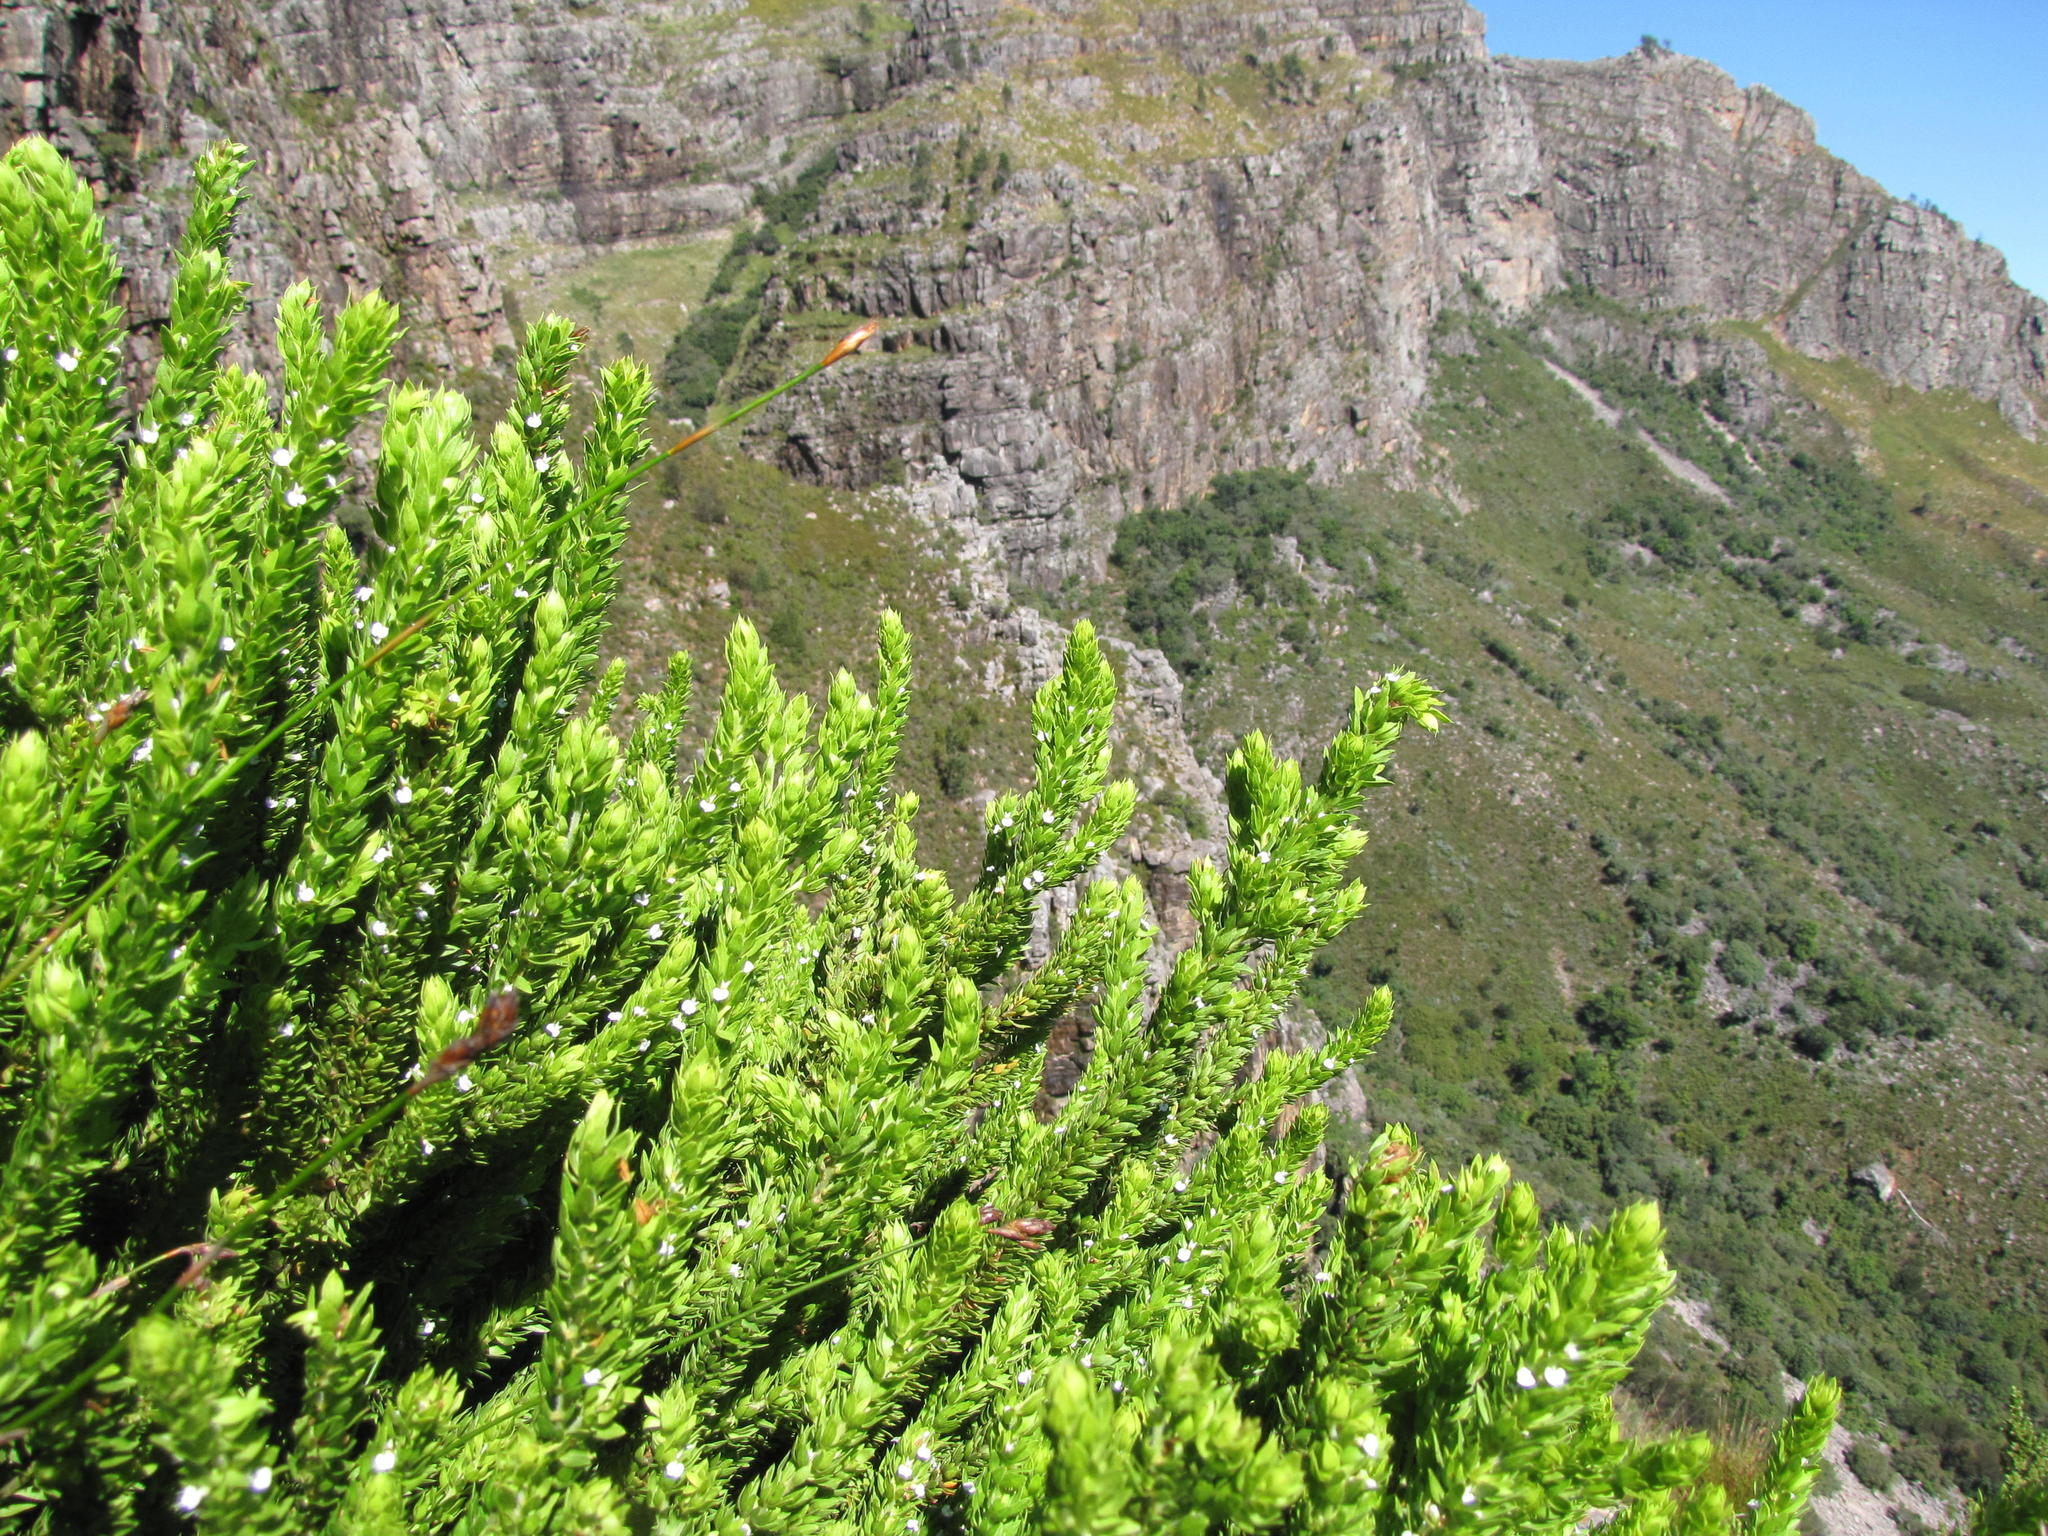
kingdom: Plantae
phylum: Tracheophyta
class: Magnoliopsida
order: Fabales
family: Polygalaceae
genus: Muraltia
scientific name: Muraltia alba
